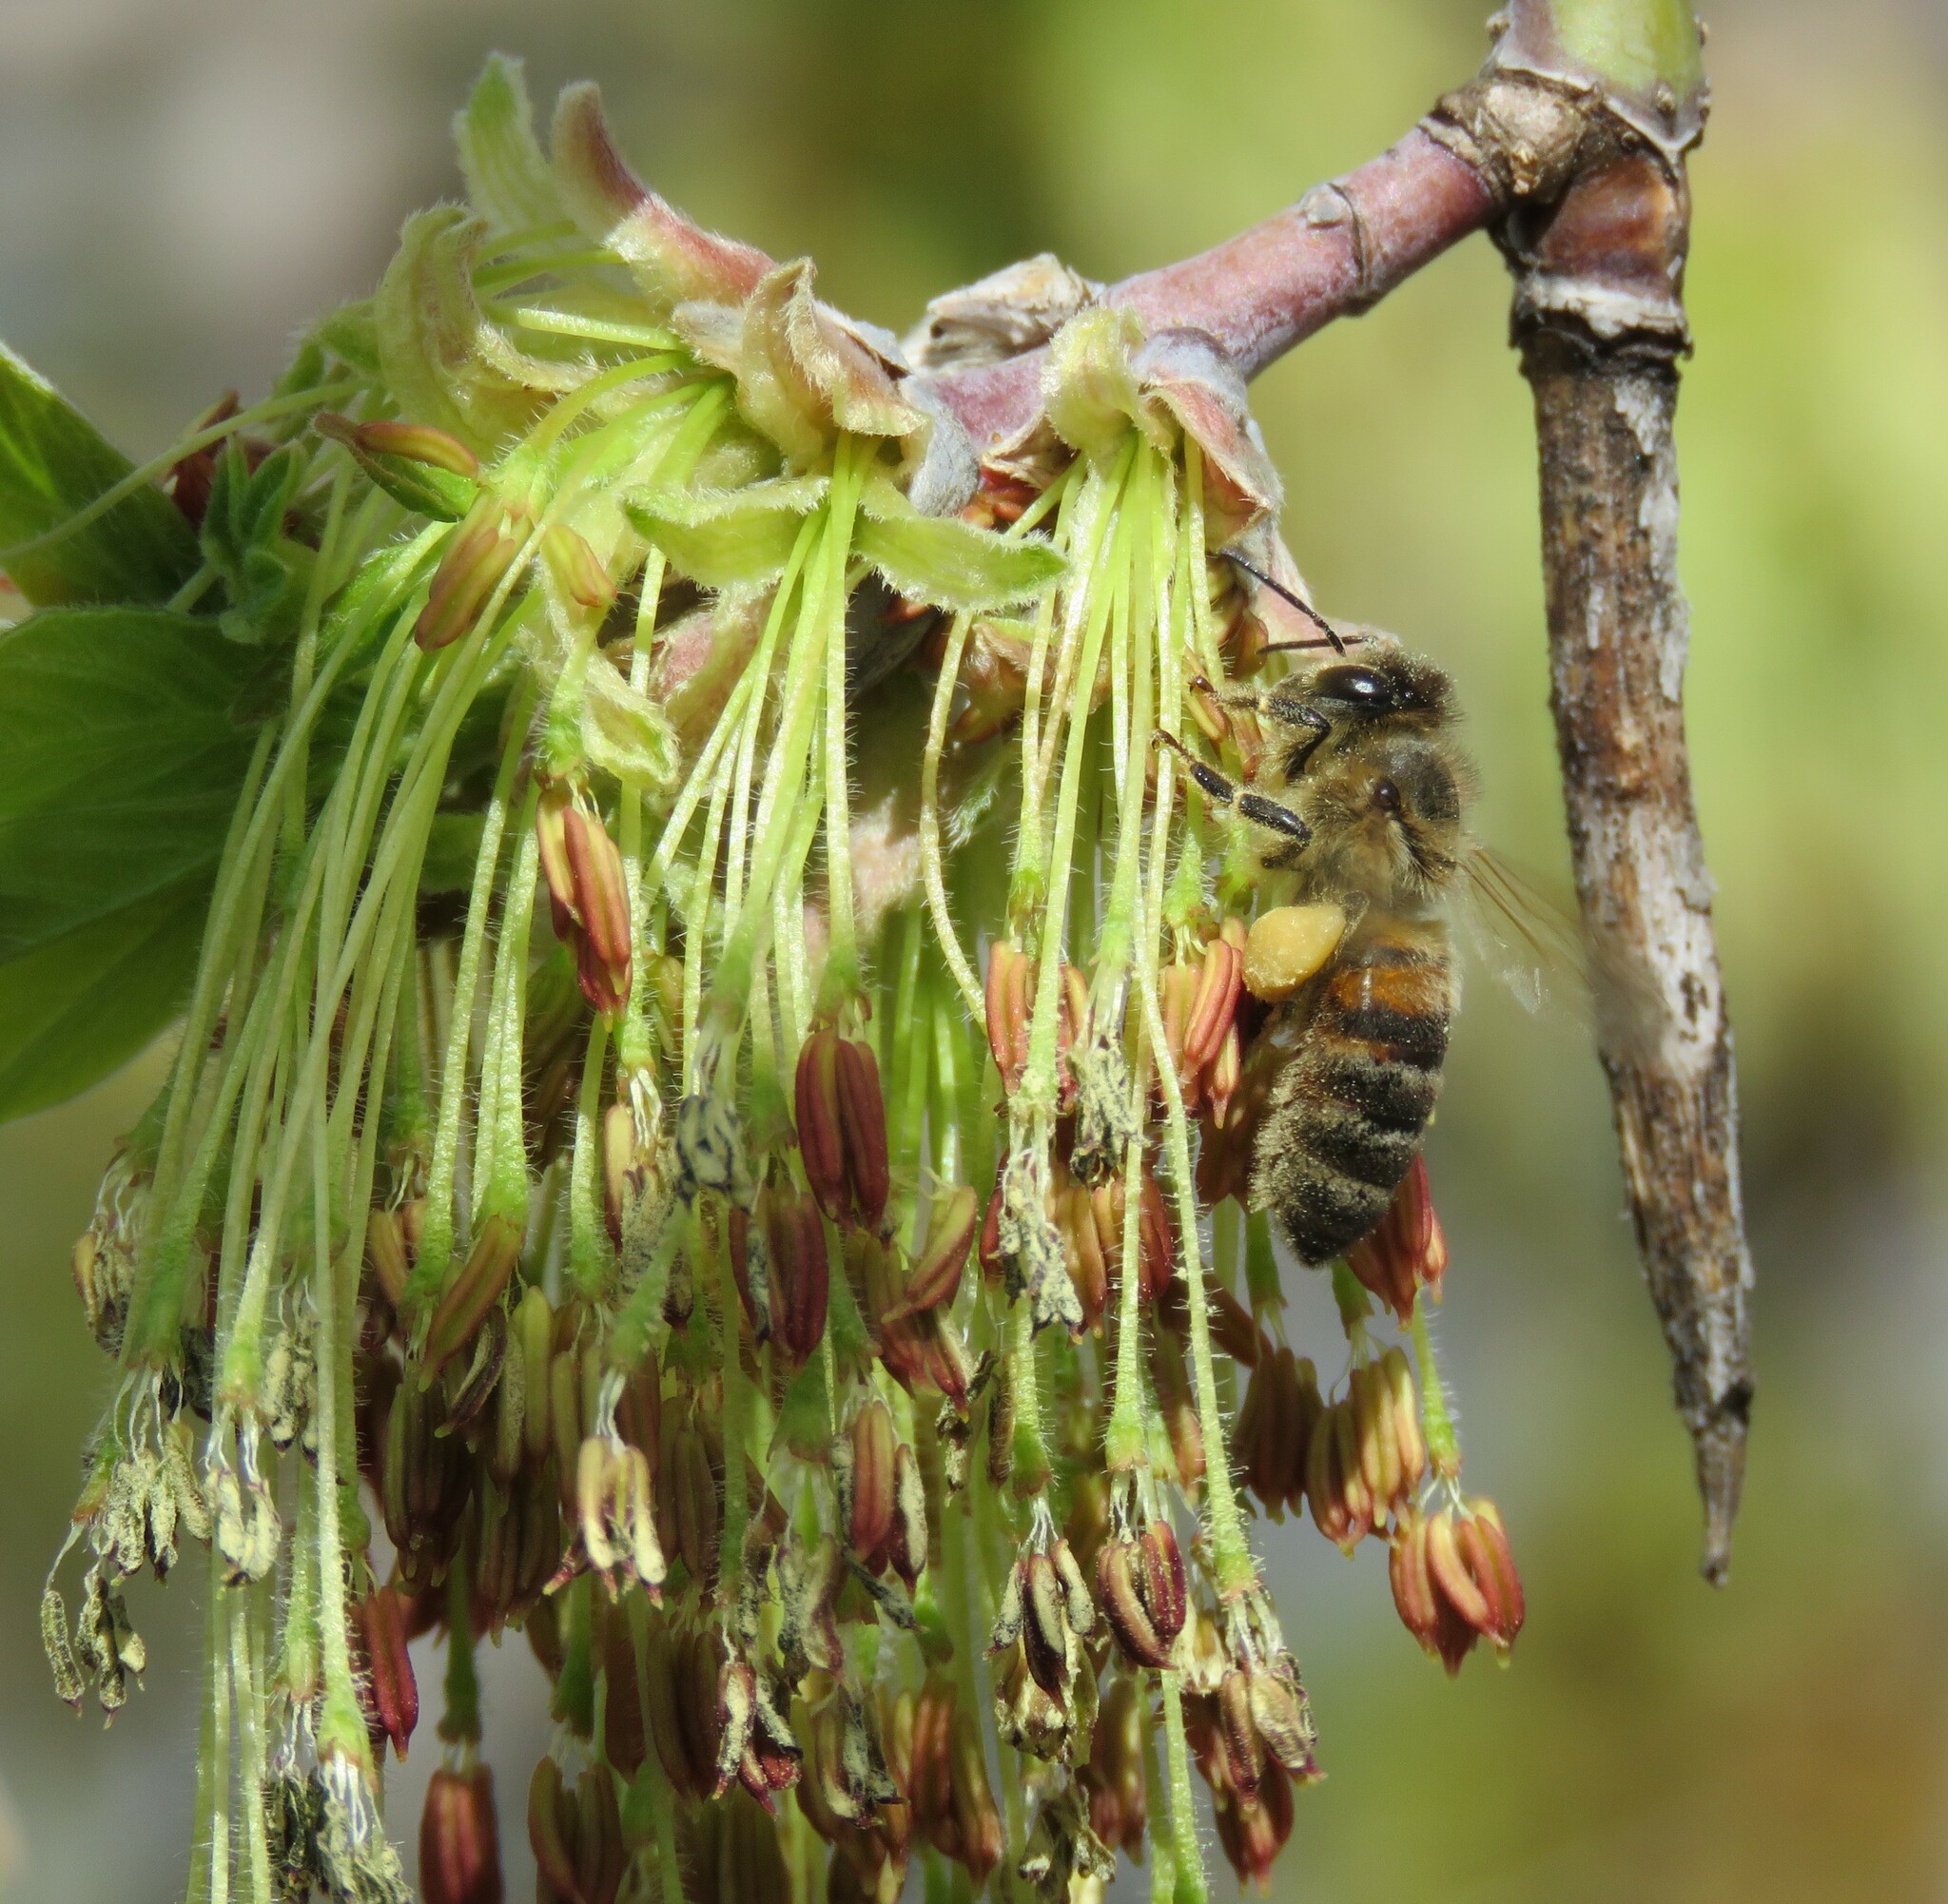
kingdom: Animalia
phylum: Arthropoda
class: Insecta
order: Hymenoptera
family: Apidae
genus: Apis
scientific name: Apis mellifera
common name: Honey bee
